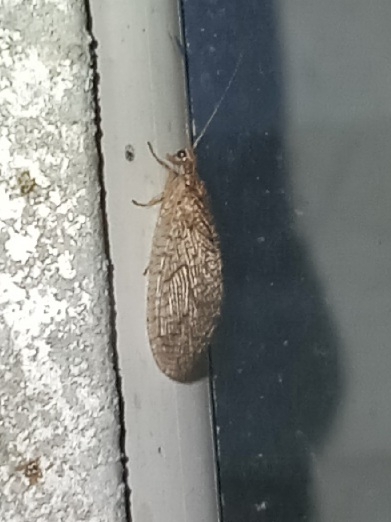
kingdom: Animalia
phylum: Arthropoda
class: Insecta
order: Neuroptera
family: Hemerobiidae
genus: Micromus
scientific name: Micromus posticus
